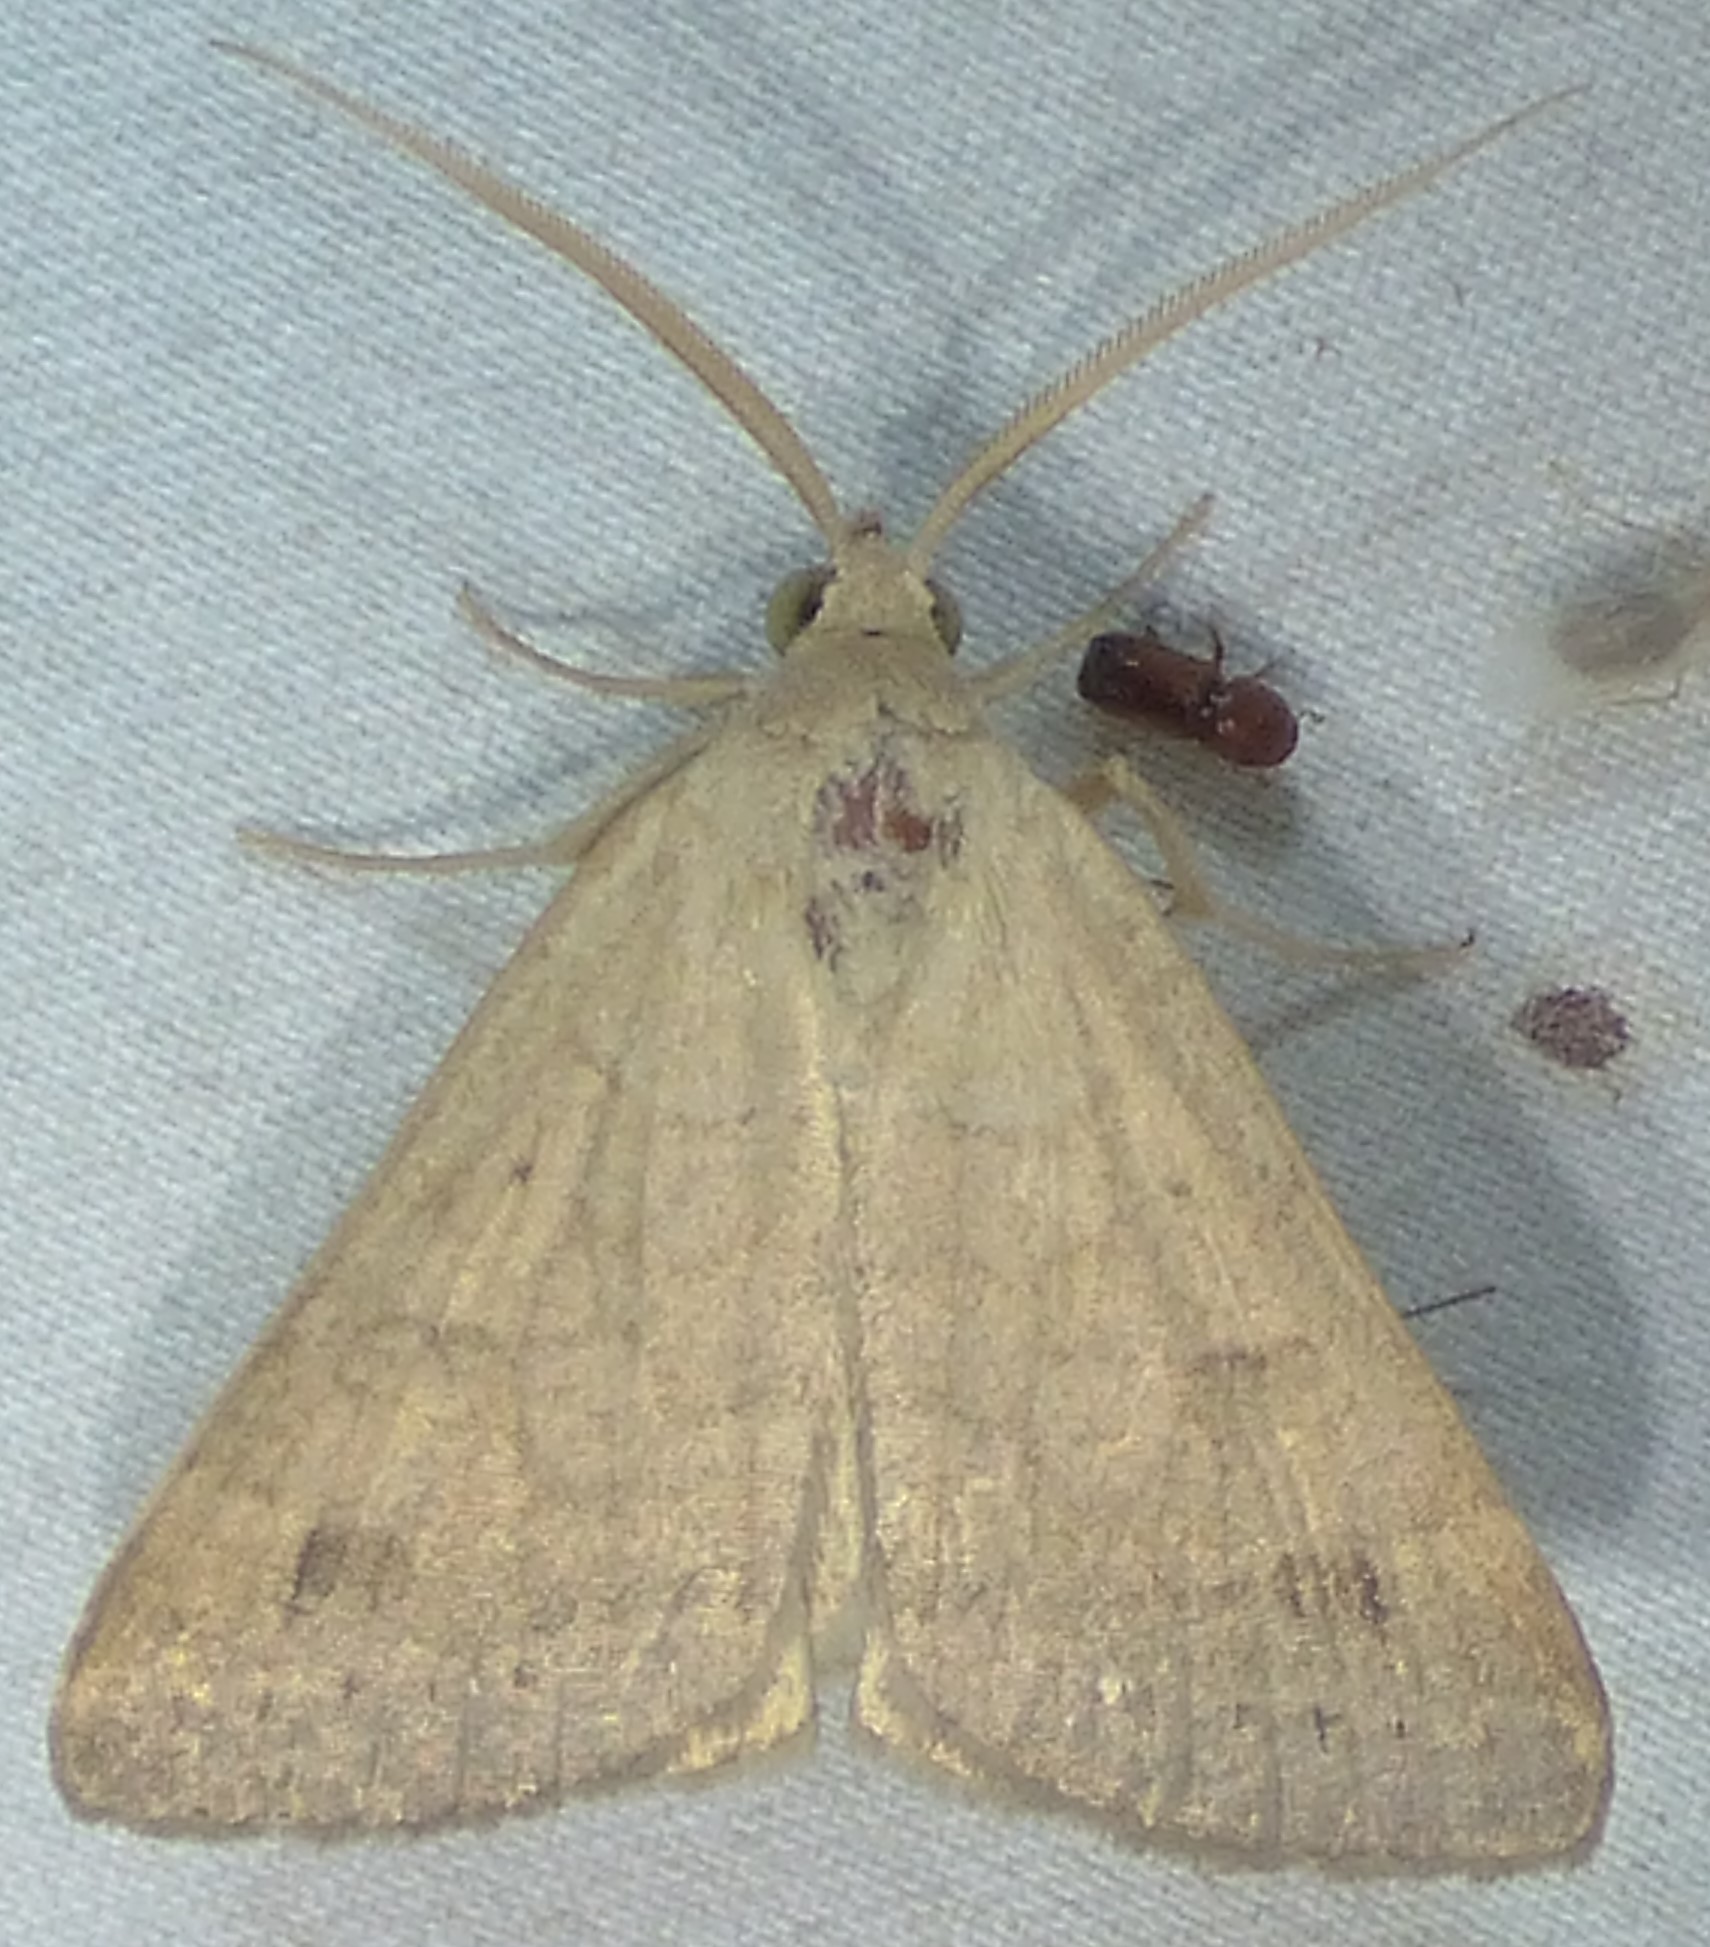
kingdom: Animalia
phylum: Arthropoda
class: Insecta
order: Lepidoptera
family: Erebidae
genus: Caenurgia
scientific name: Caenurgia chloropha
